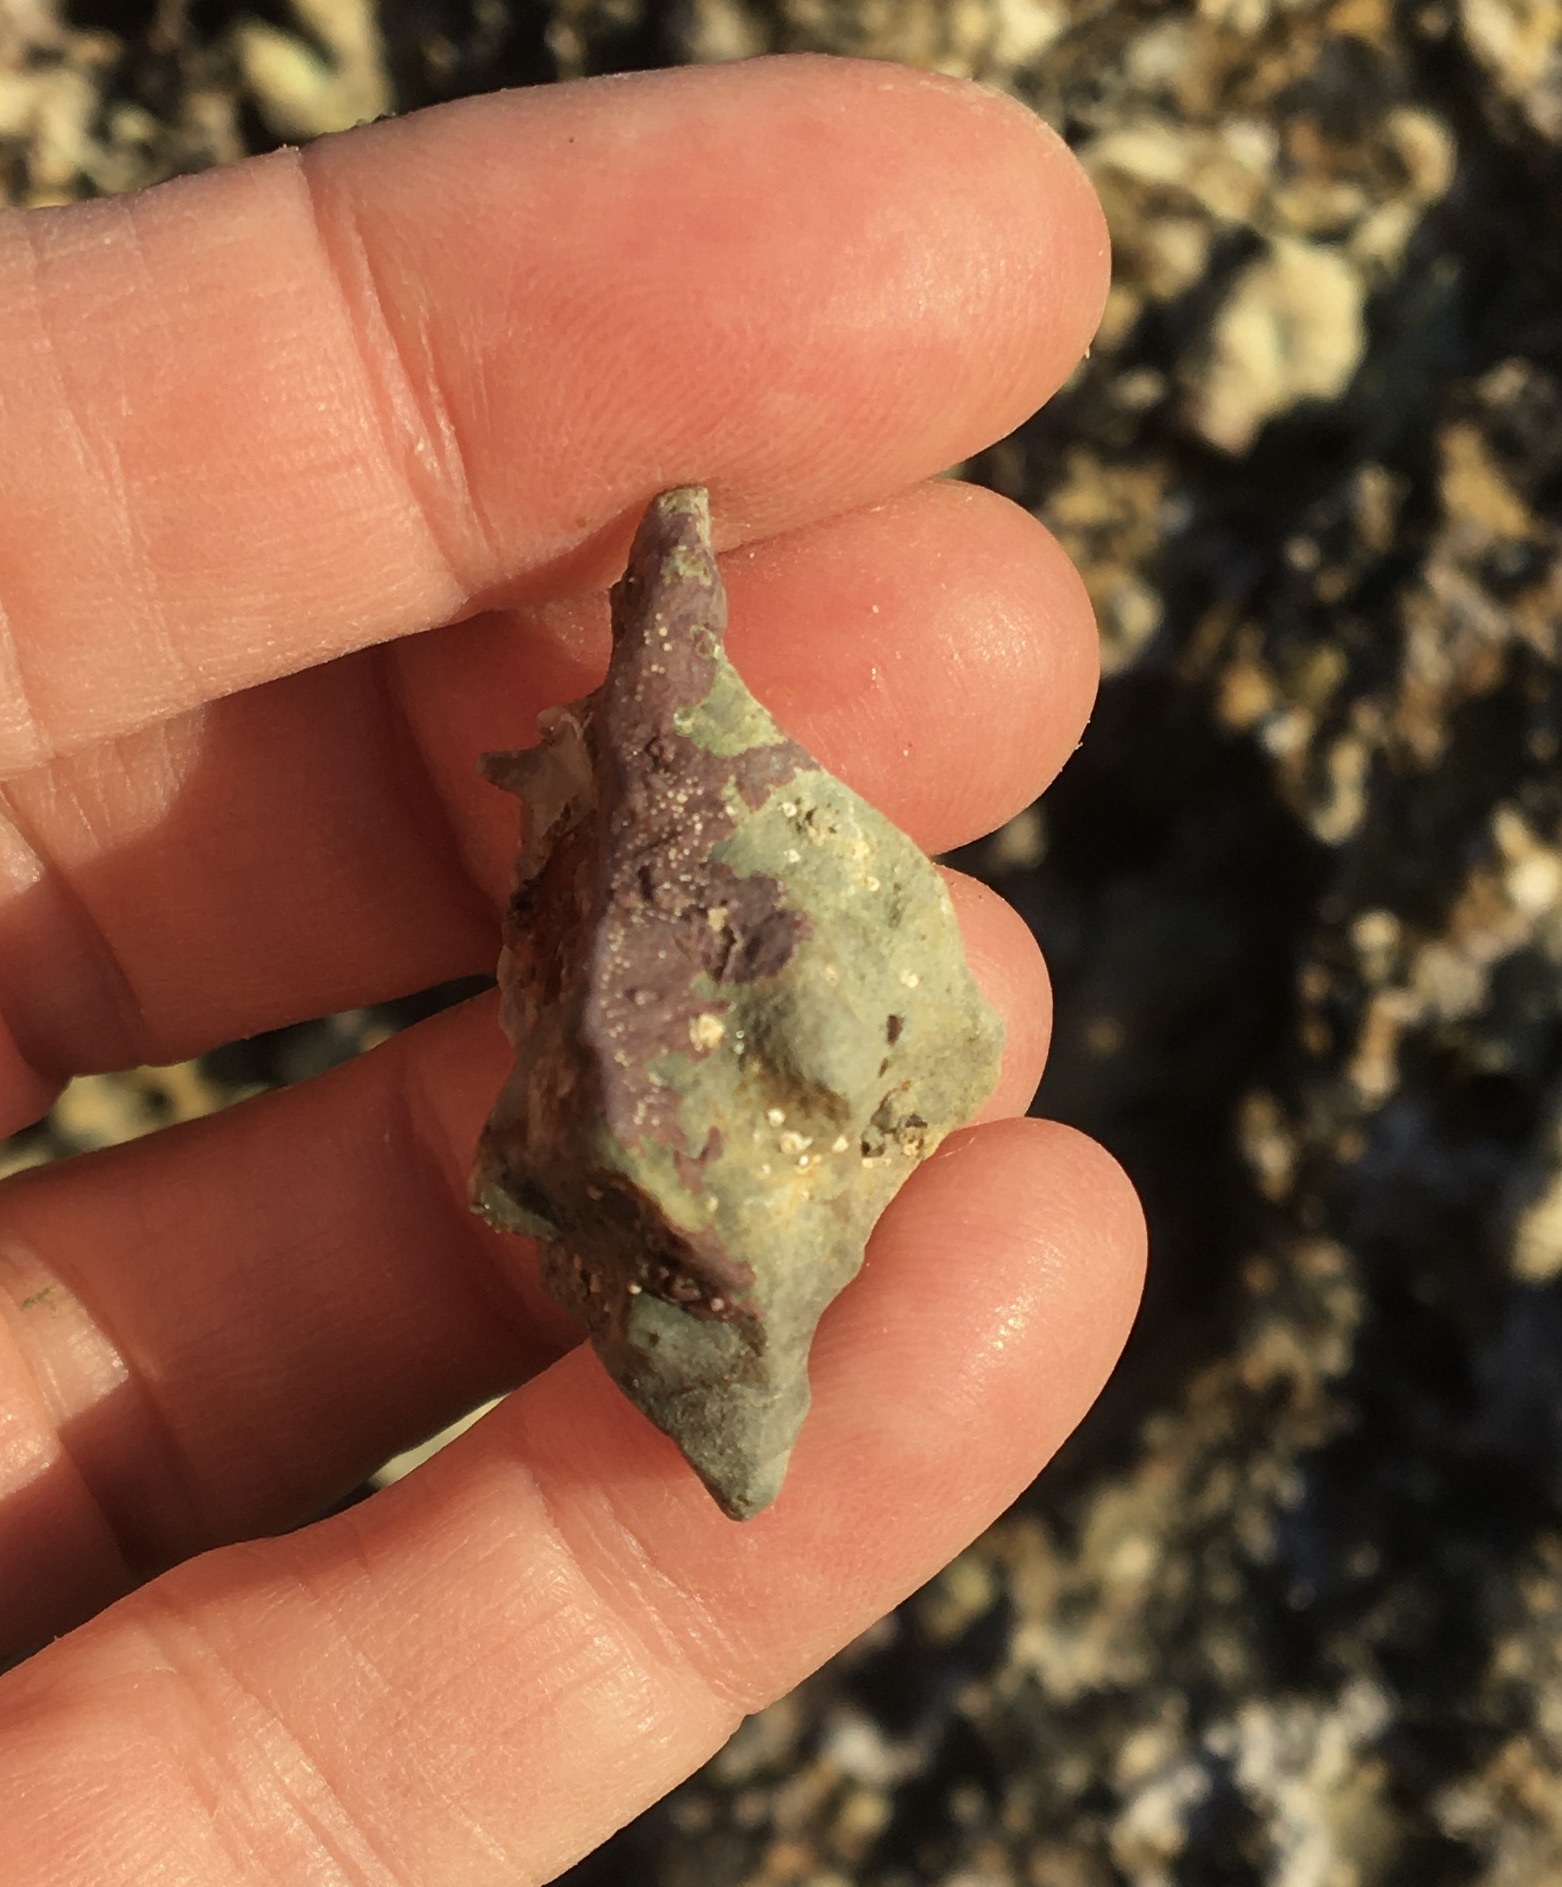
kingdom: Animalia
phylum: Mollusca
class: Gastropoda
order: Neogastropoda
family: Muricidae
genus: Ceratostoma
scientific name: Ceratostoma nuttalli
